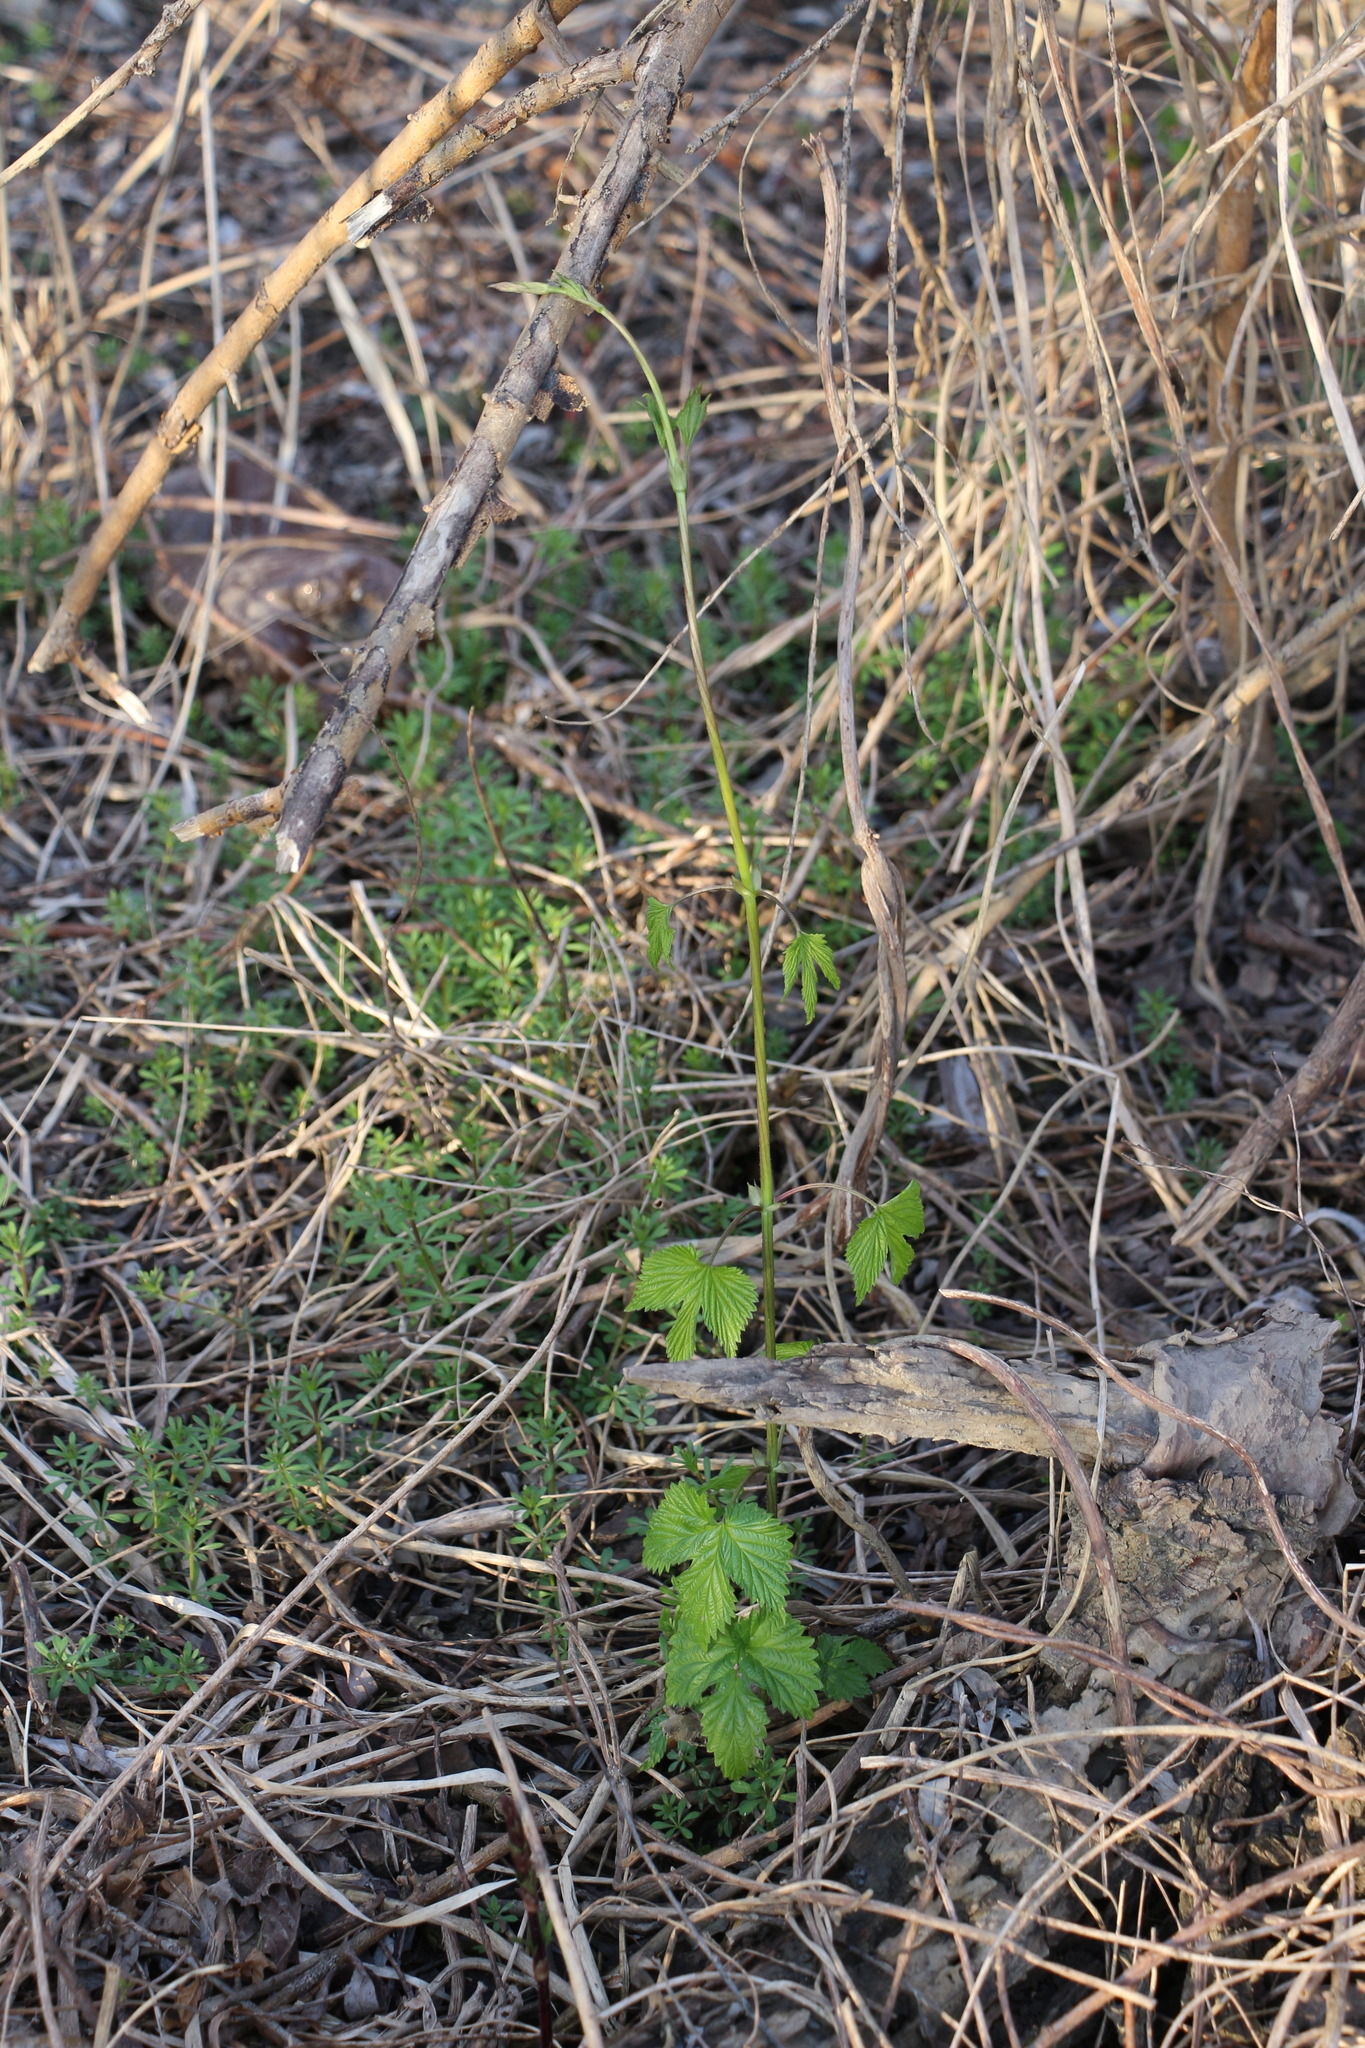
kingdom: Plantae
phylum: Tracheophyta
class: Magnoliopsida
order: Rosales
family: Cannabaceae
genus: Humulus
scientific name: Humulus lupulus
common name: Hop
